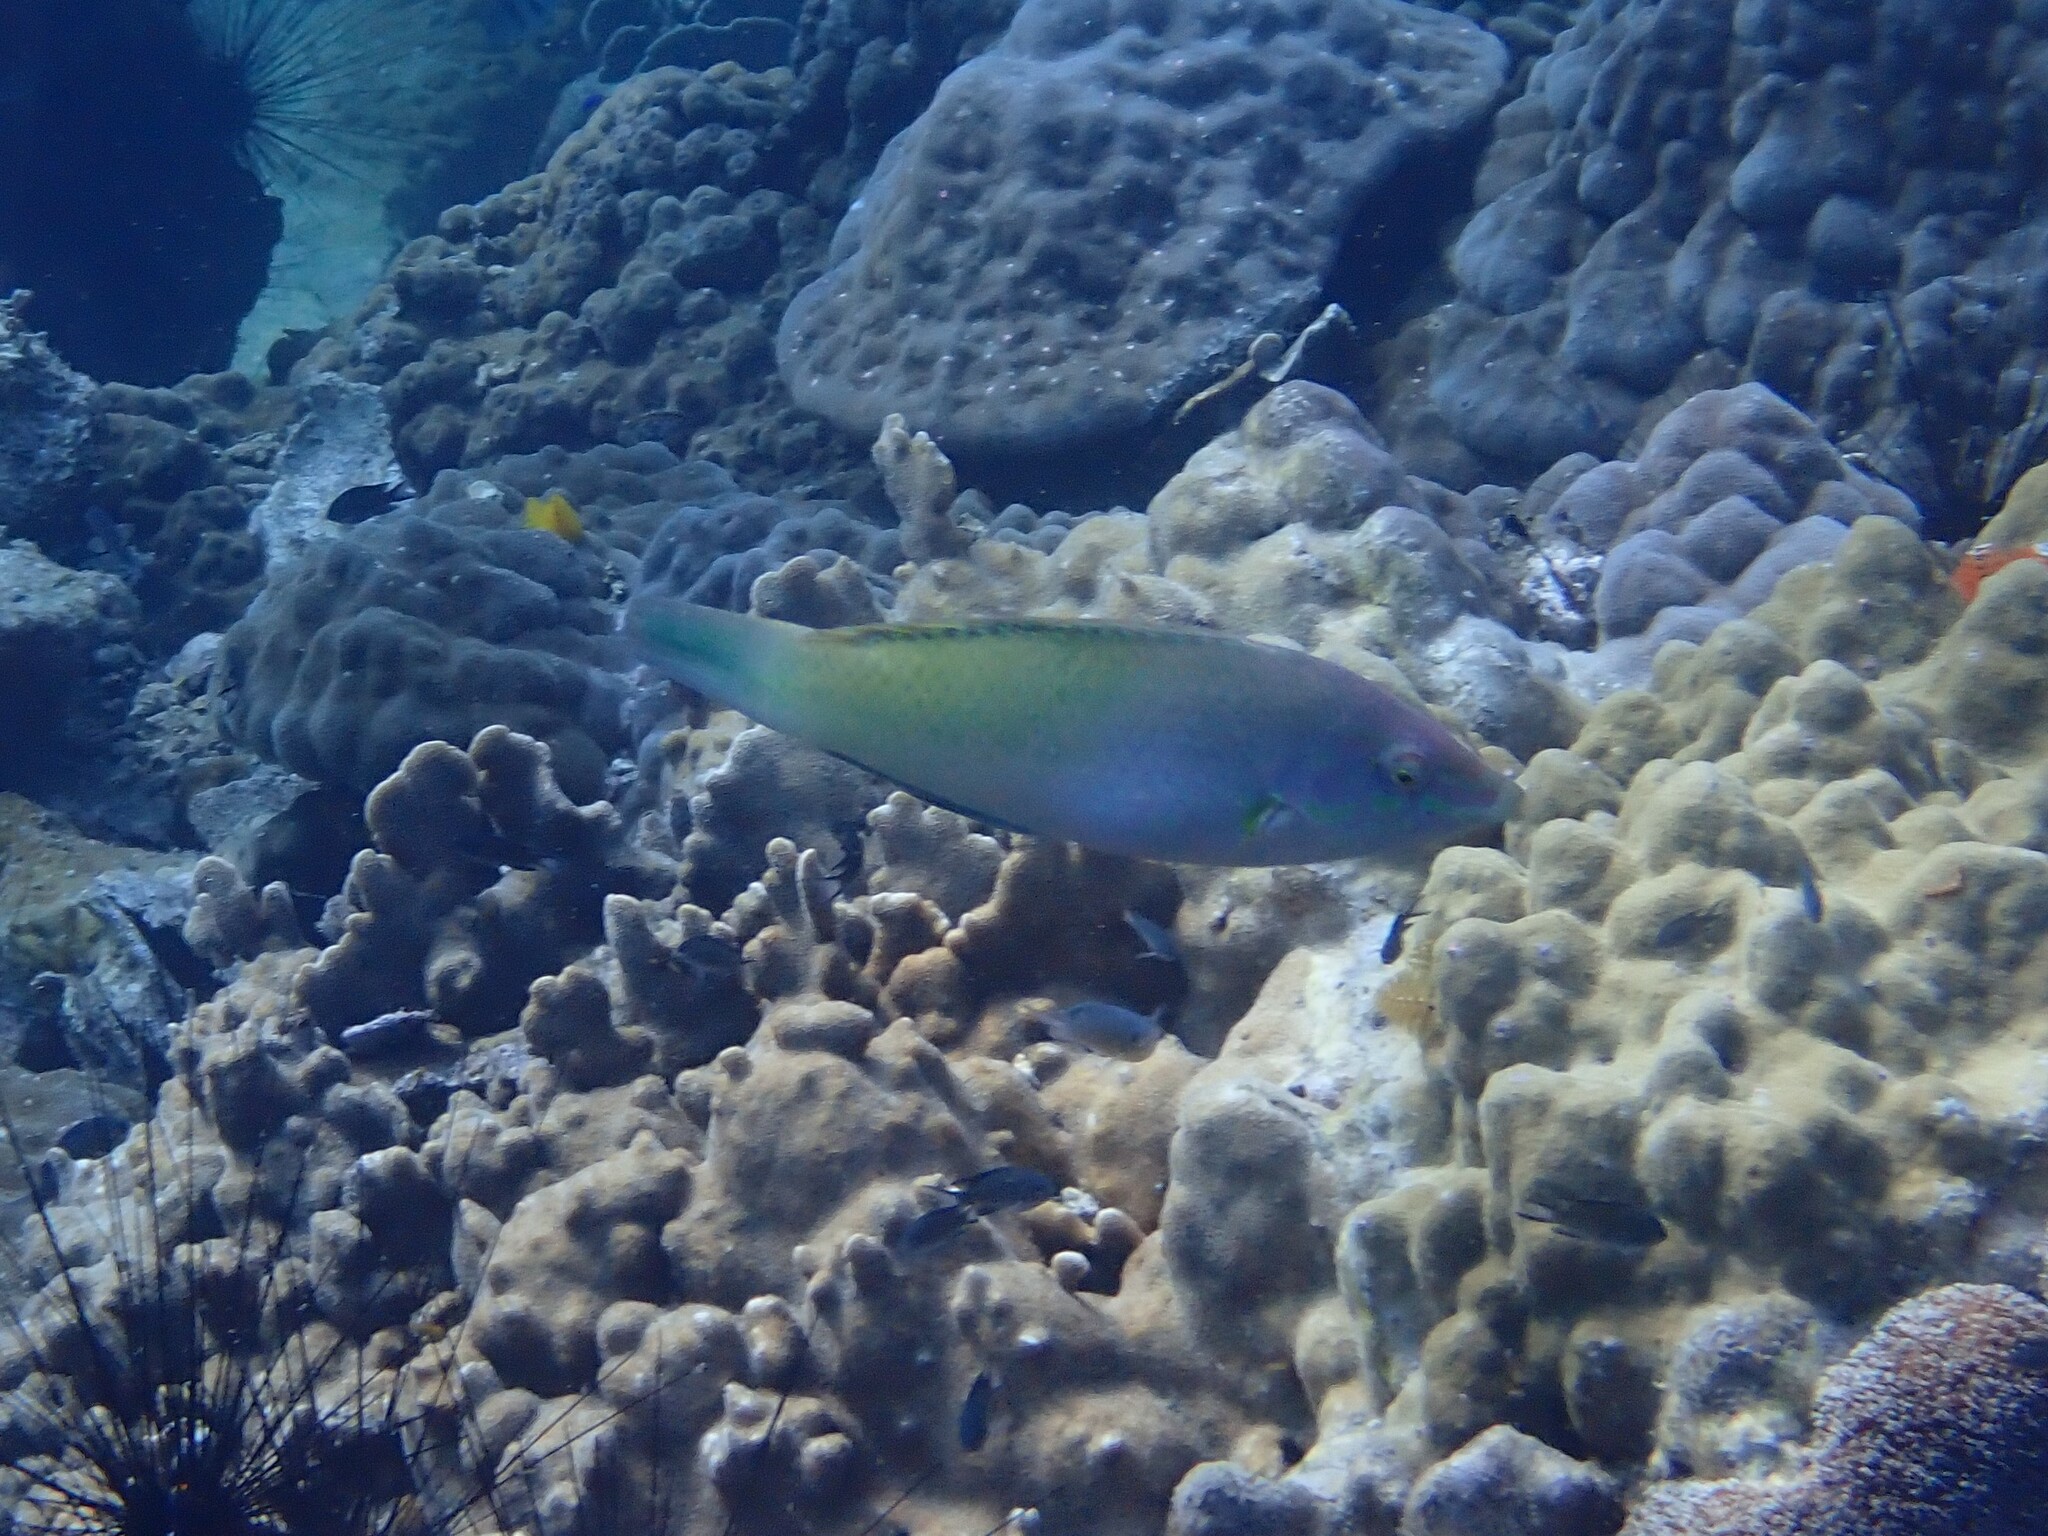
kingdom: Animalia
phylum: Chordata
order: Perciformes
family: Labridae
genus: Halichoeres
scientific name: Halichoeres chloropterus
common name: Pastel-green wrasse
